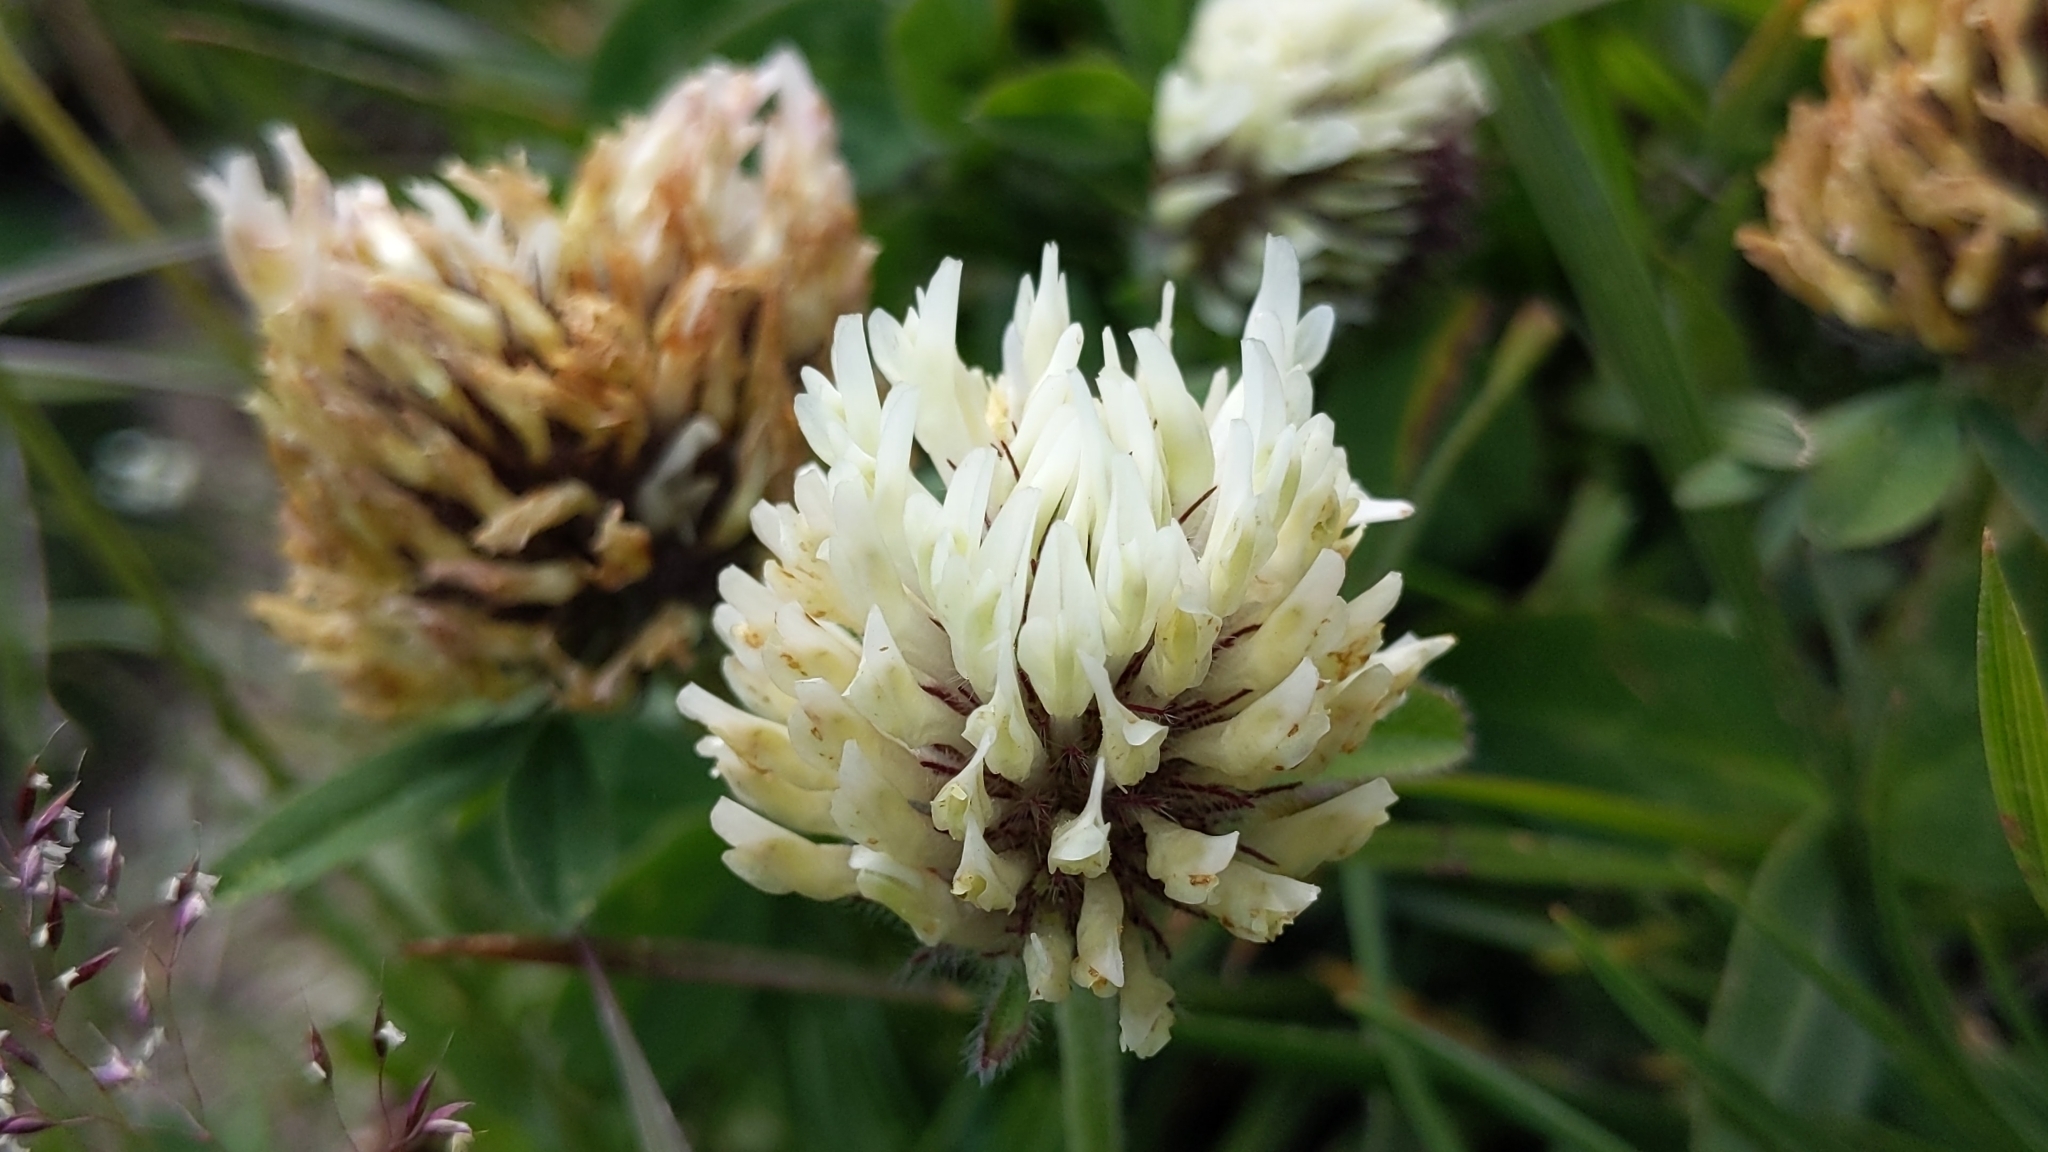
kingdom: Plantae
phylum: Tracheophyta
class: Magnoliopsida
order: Fabales
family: Fabaceae
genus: Trifolium
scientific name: Trifolium montanum
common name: Mountain clover
